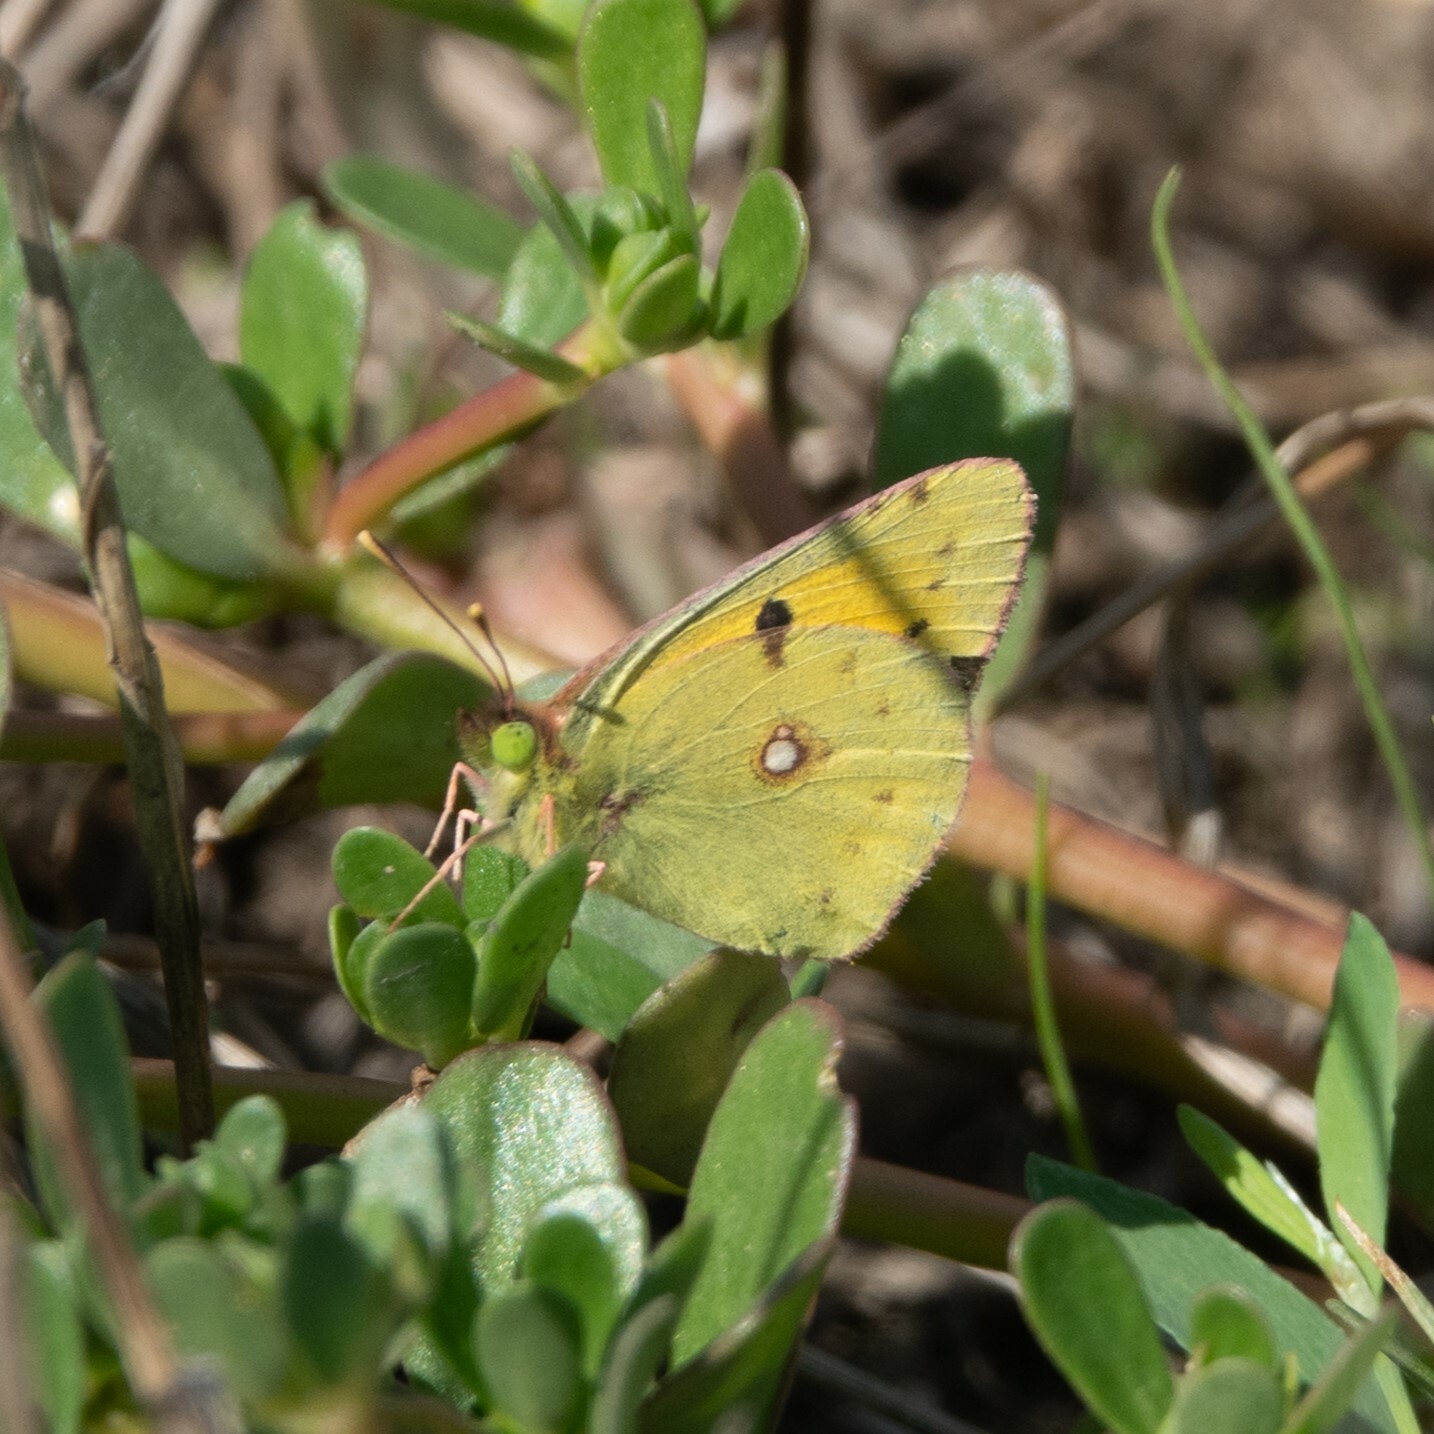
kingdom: Animalia
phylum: Arthropoda
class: Insecta
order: Lepidoptera
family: Pieridae
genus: Colias
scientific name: Colias croceus
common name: Clouded yellow
